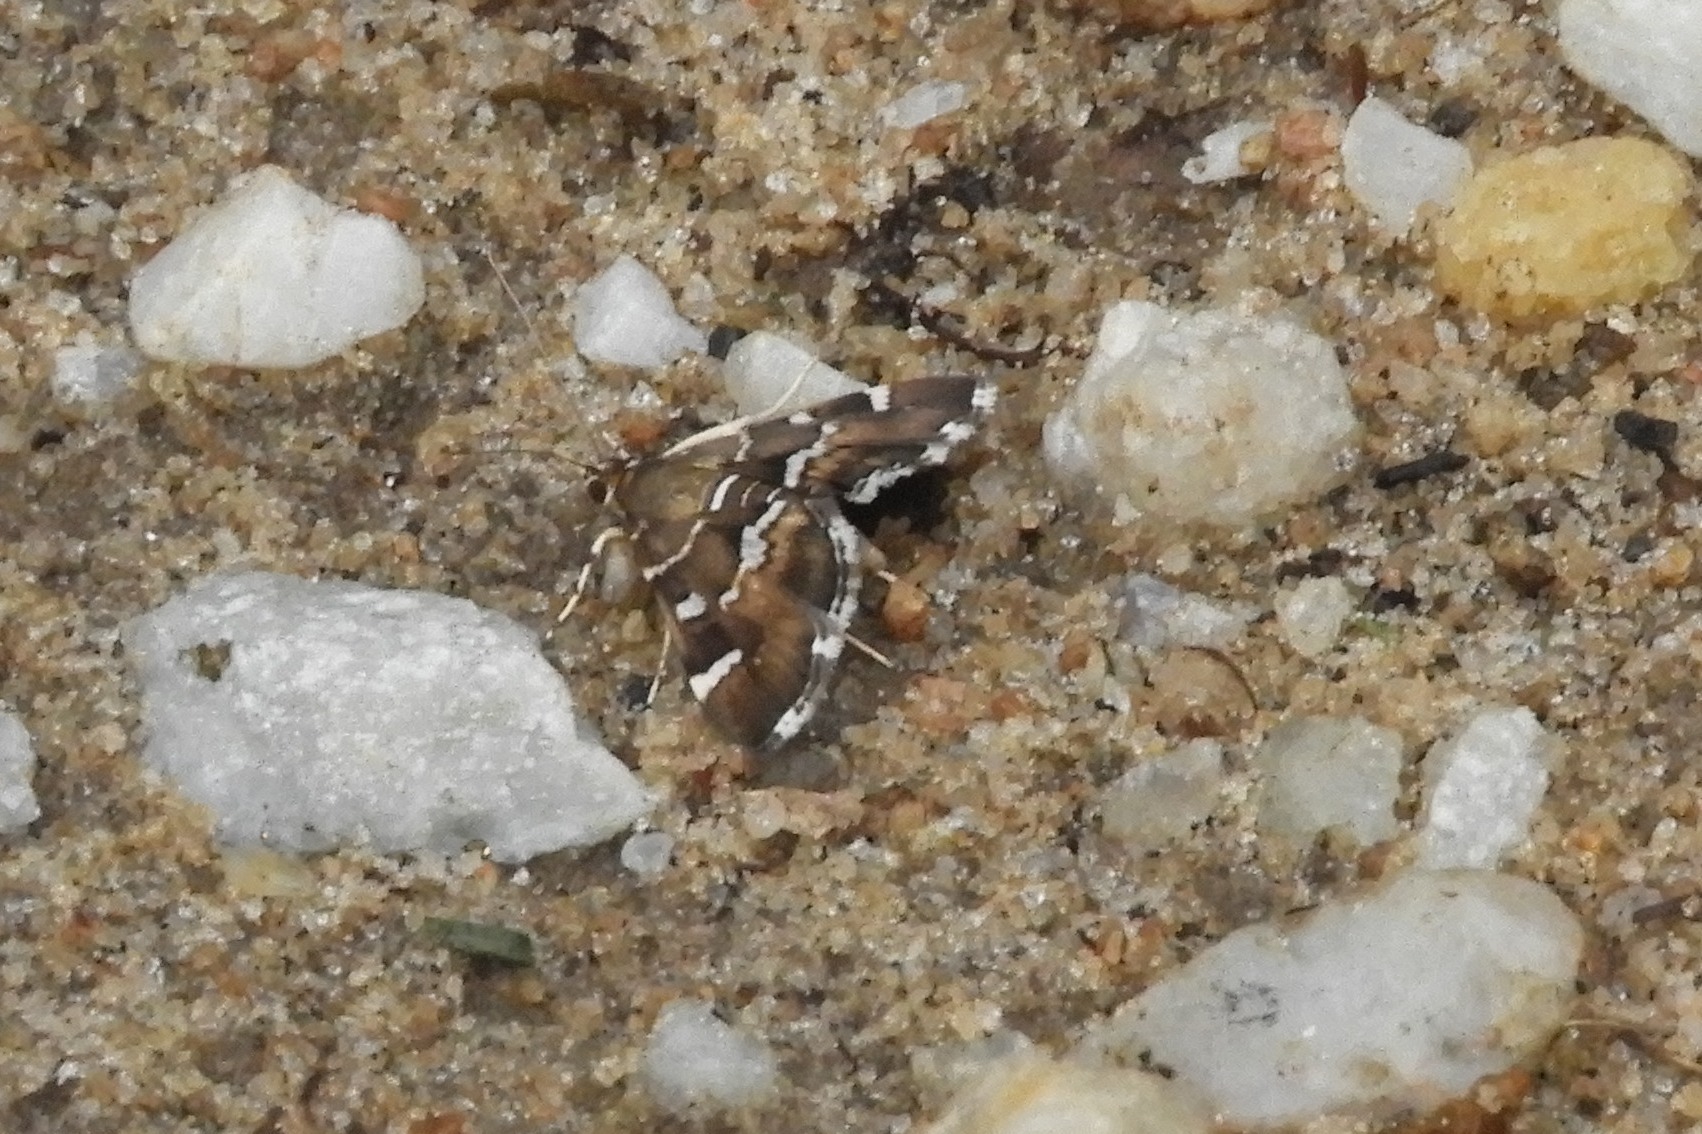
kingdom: Animalia
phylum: Arthropoda
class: Insecta
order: Lepidoptera
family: Crambidae
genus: Hymenia
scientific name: Hymenia perspectalis
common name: Spotted beet webworm
